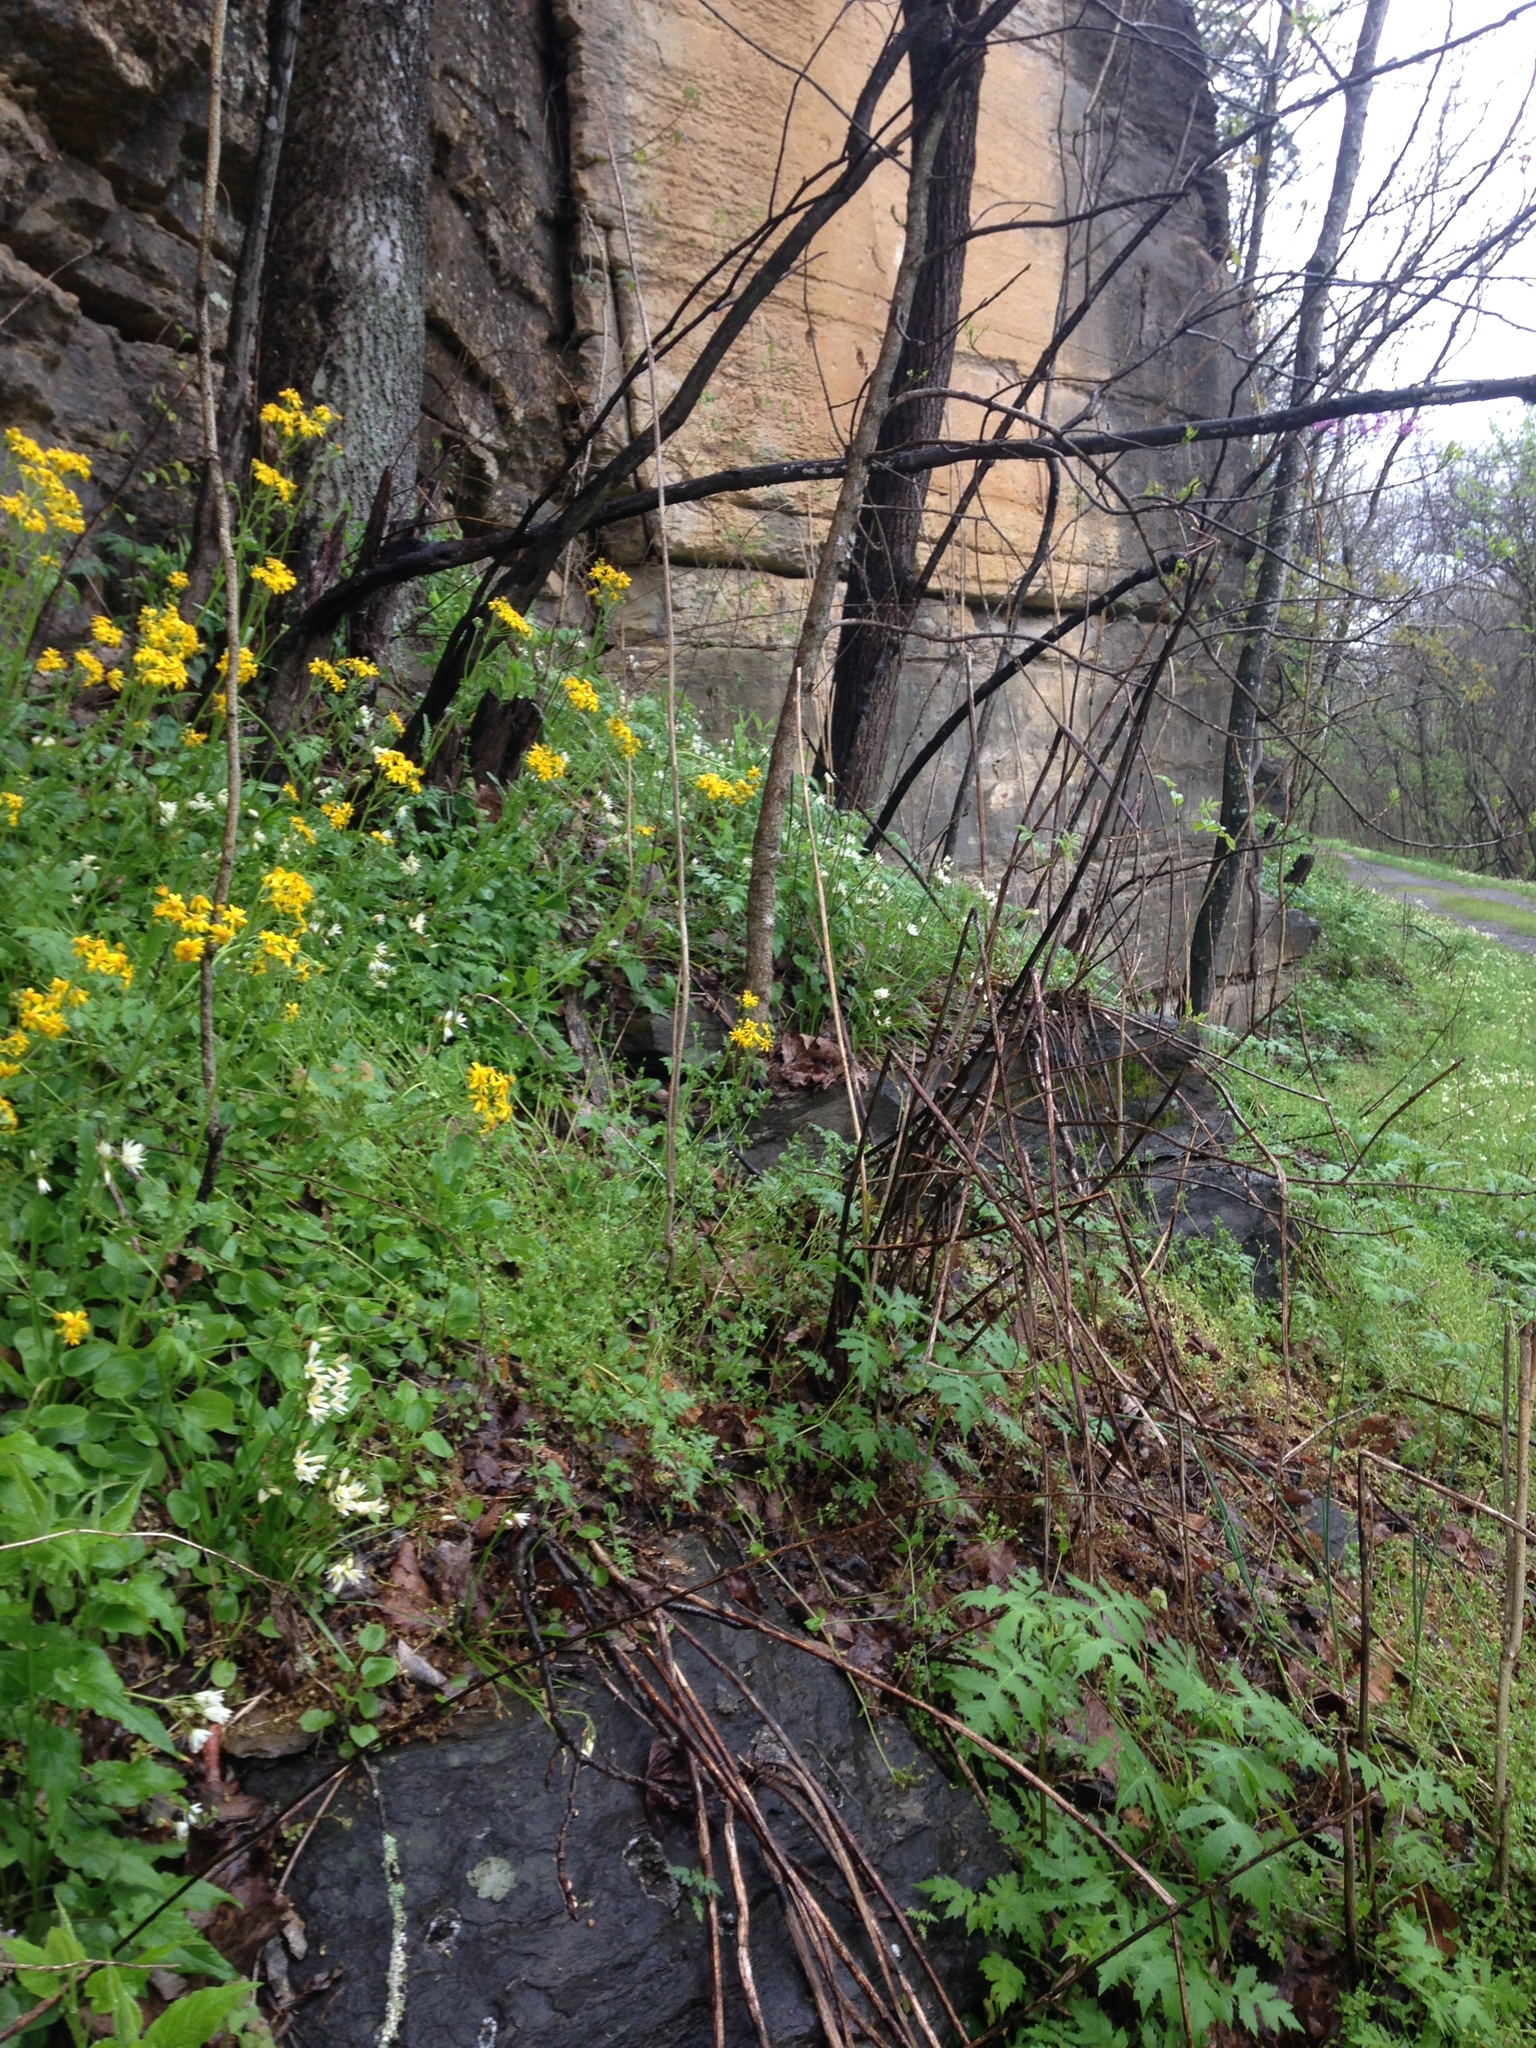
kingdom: Plantae
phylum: Tracheophyta
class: Magnoliopsida
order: Asterales
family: Asteraceae
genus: Packera
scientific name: Packera paupercula
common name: Balsam groundsel
